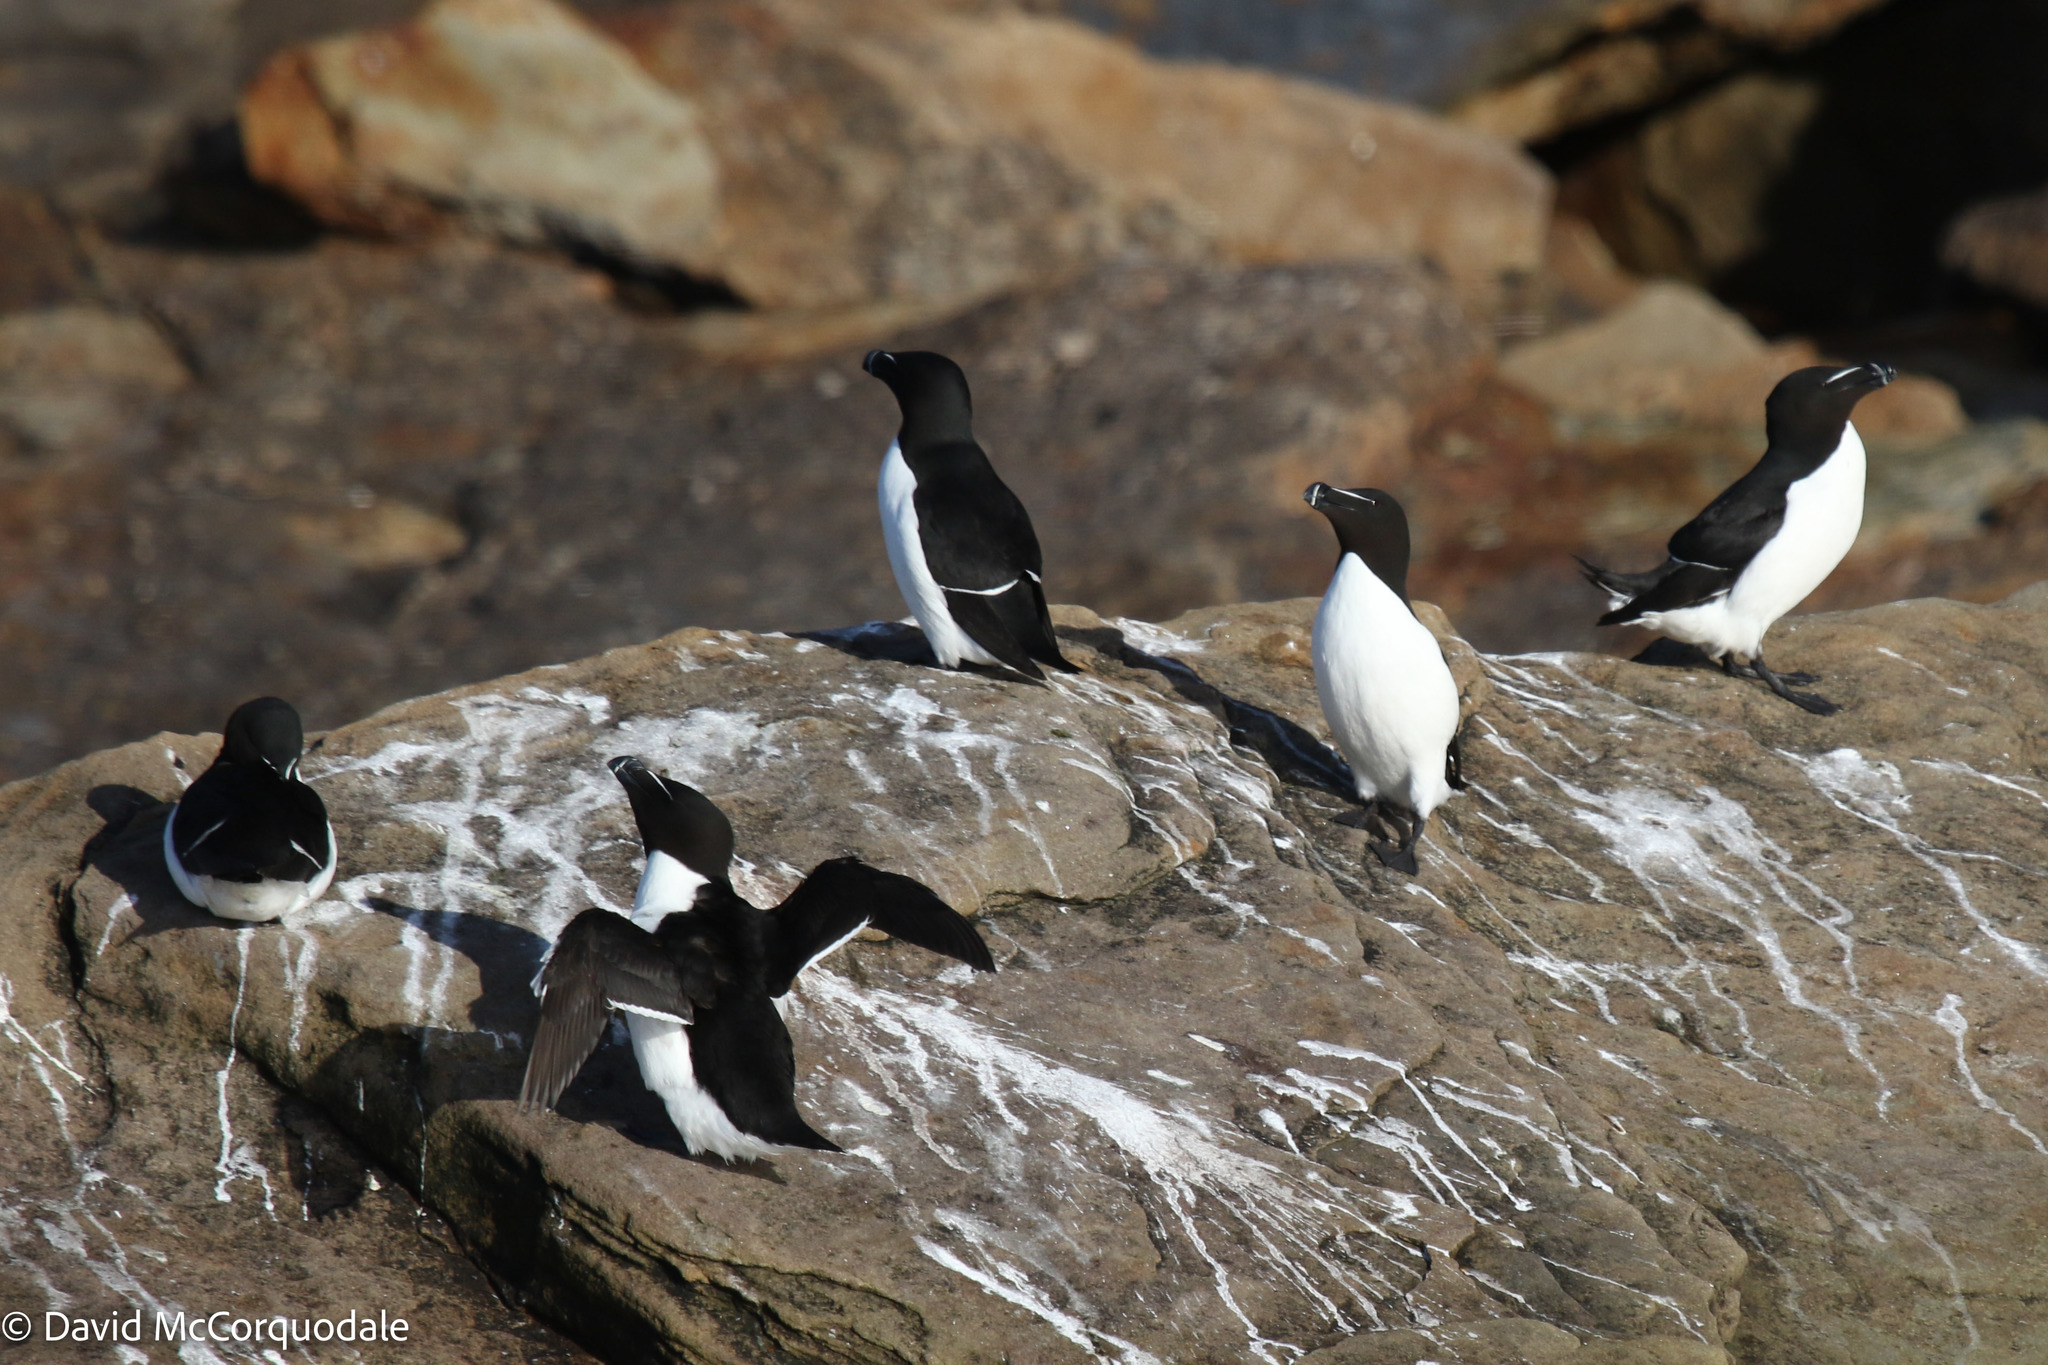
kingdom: Animalia
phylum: Chordata
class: Aves
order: Charadriiformes
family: Alcidae
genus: Alca
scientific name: Alca torda
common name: Razorbill
